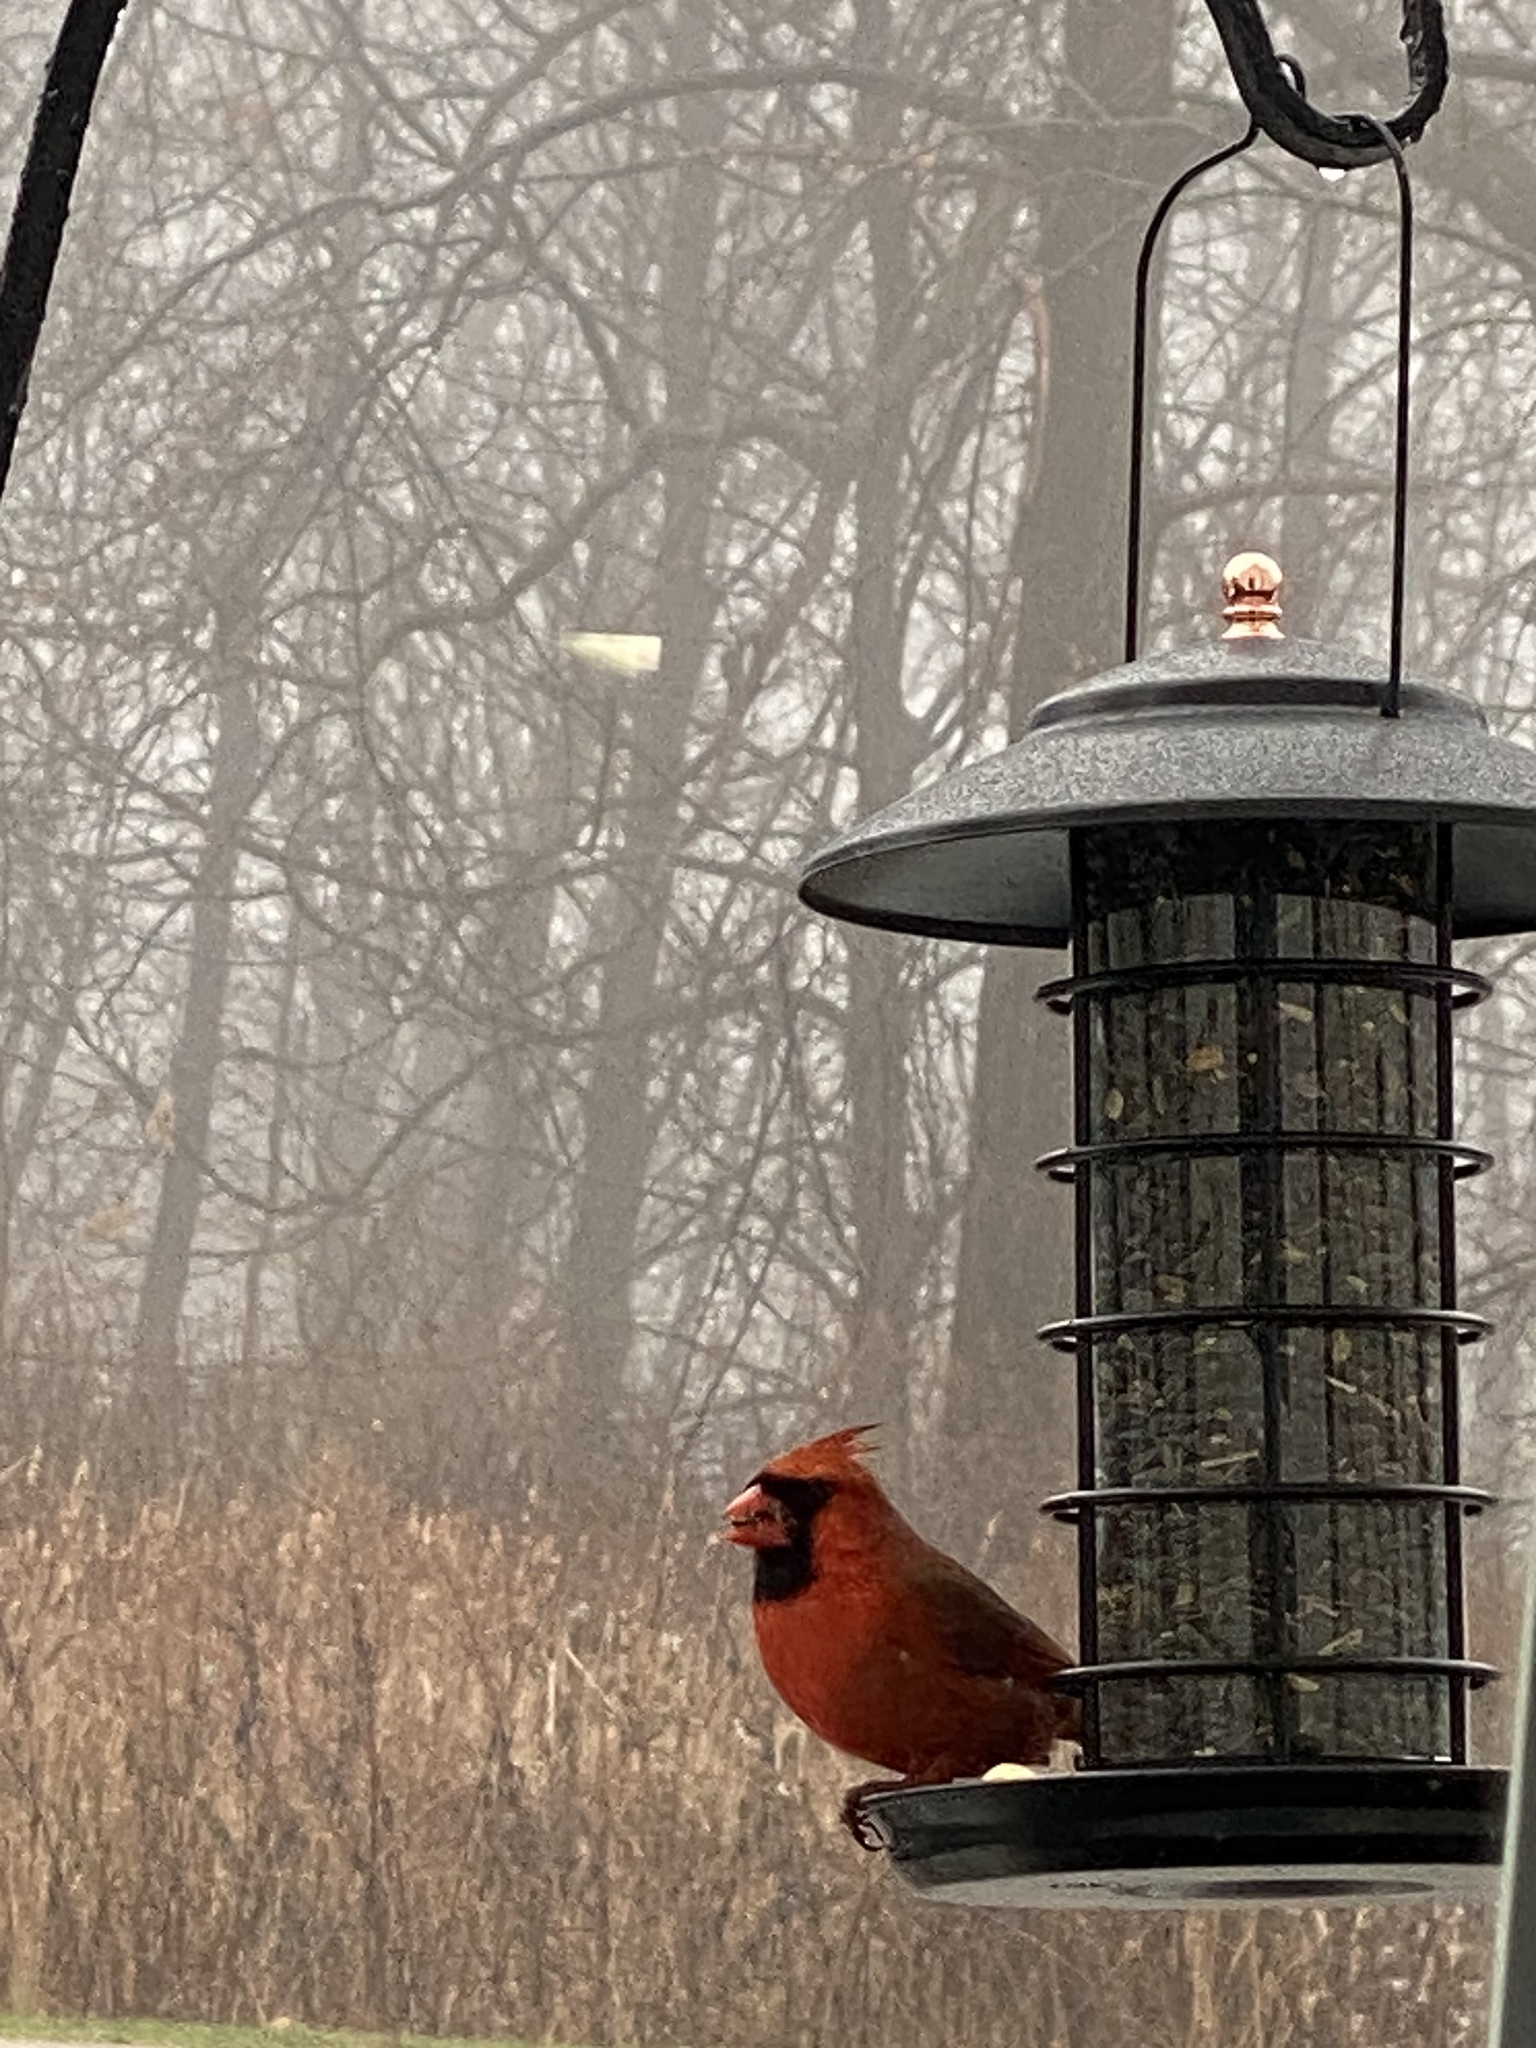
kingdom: Animalia
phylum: Chordata
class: Aves
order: Passeriformes
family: Cardinalidae
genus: Cardinalis
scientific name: Cardinalis cardinalis
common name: Northern cardinal
